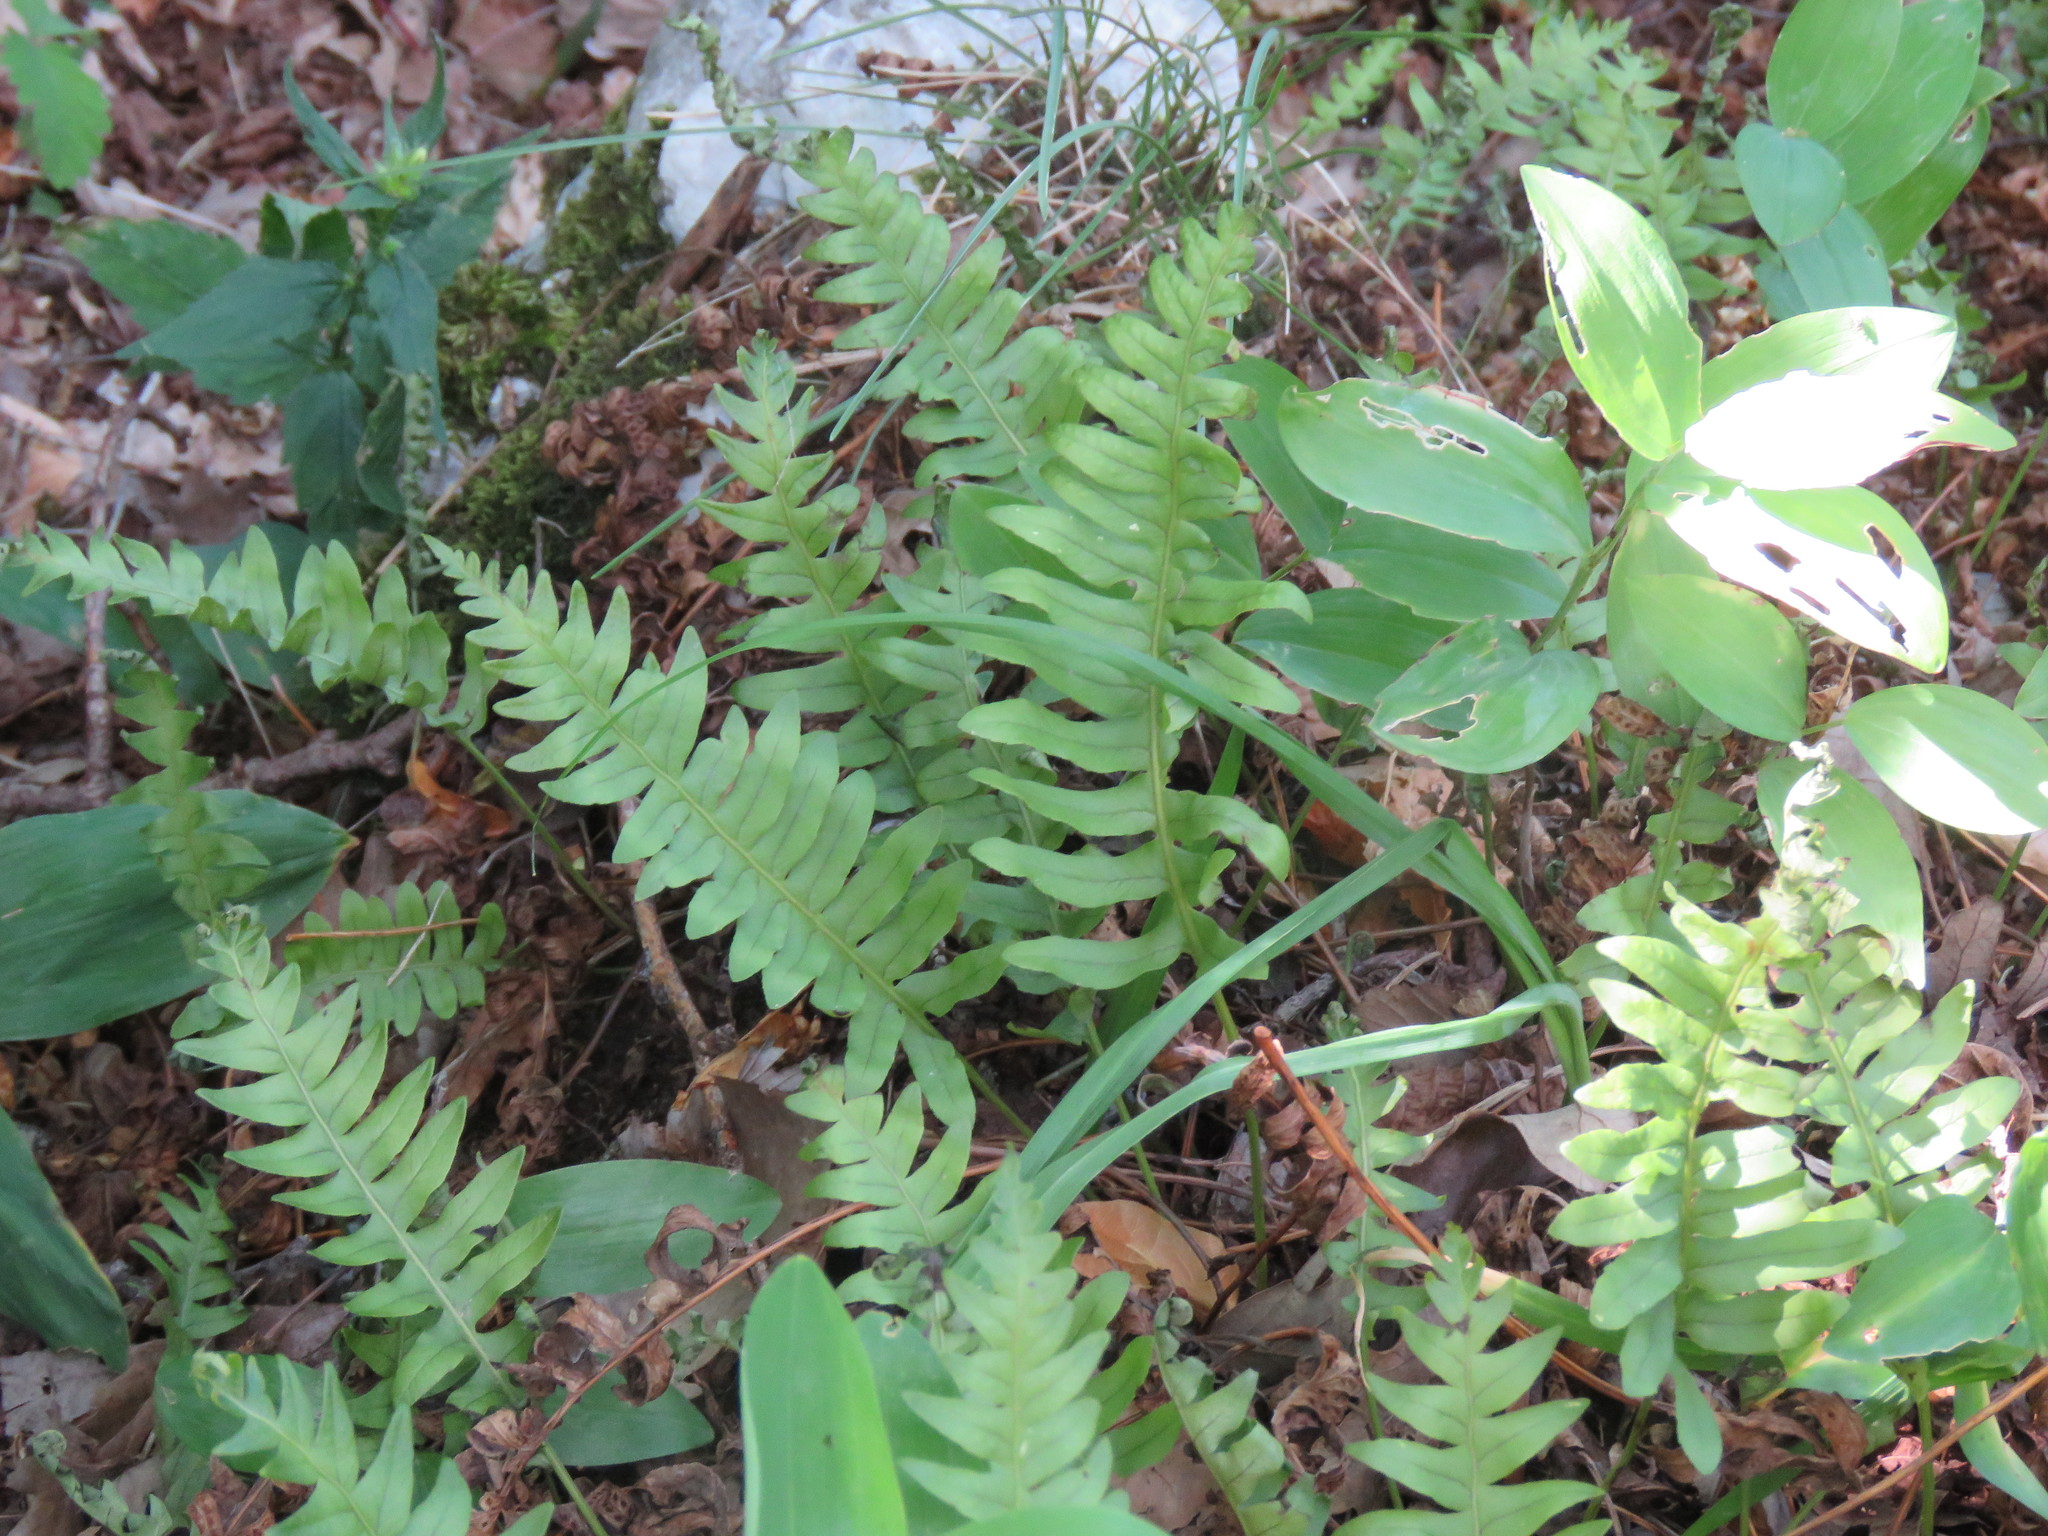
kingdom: Plantae
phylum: Tracheophyta
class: Polypodiopsida
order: Polypodiales
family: Polypodiaceae
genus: Polypodium
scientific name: Polypodium vulgare
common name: Common polypody
